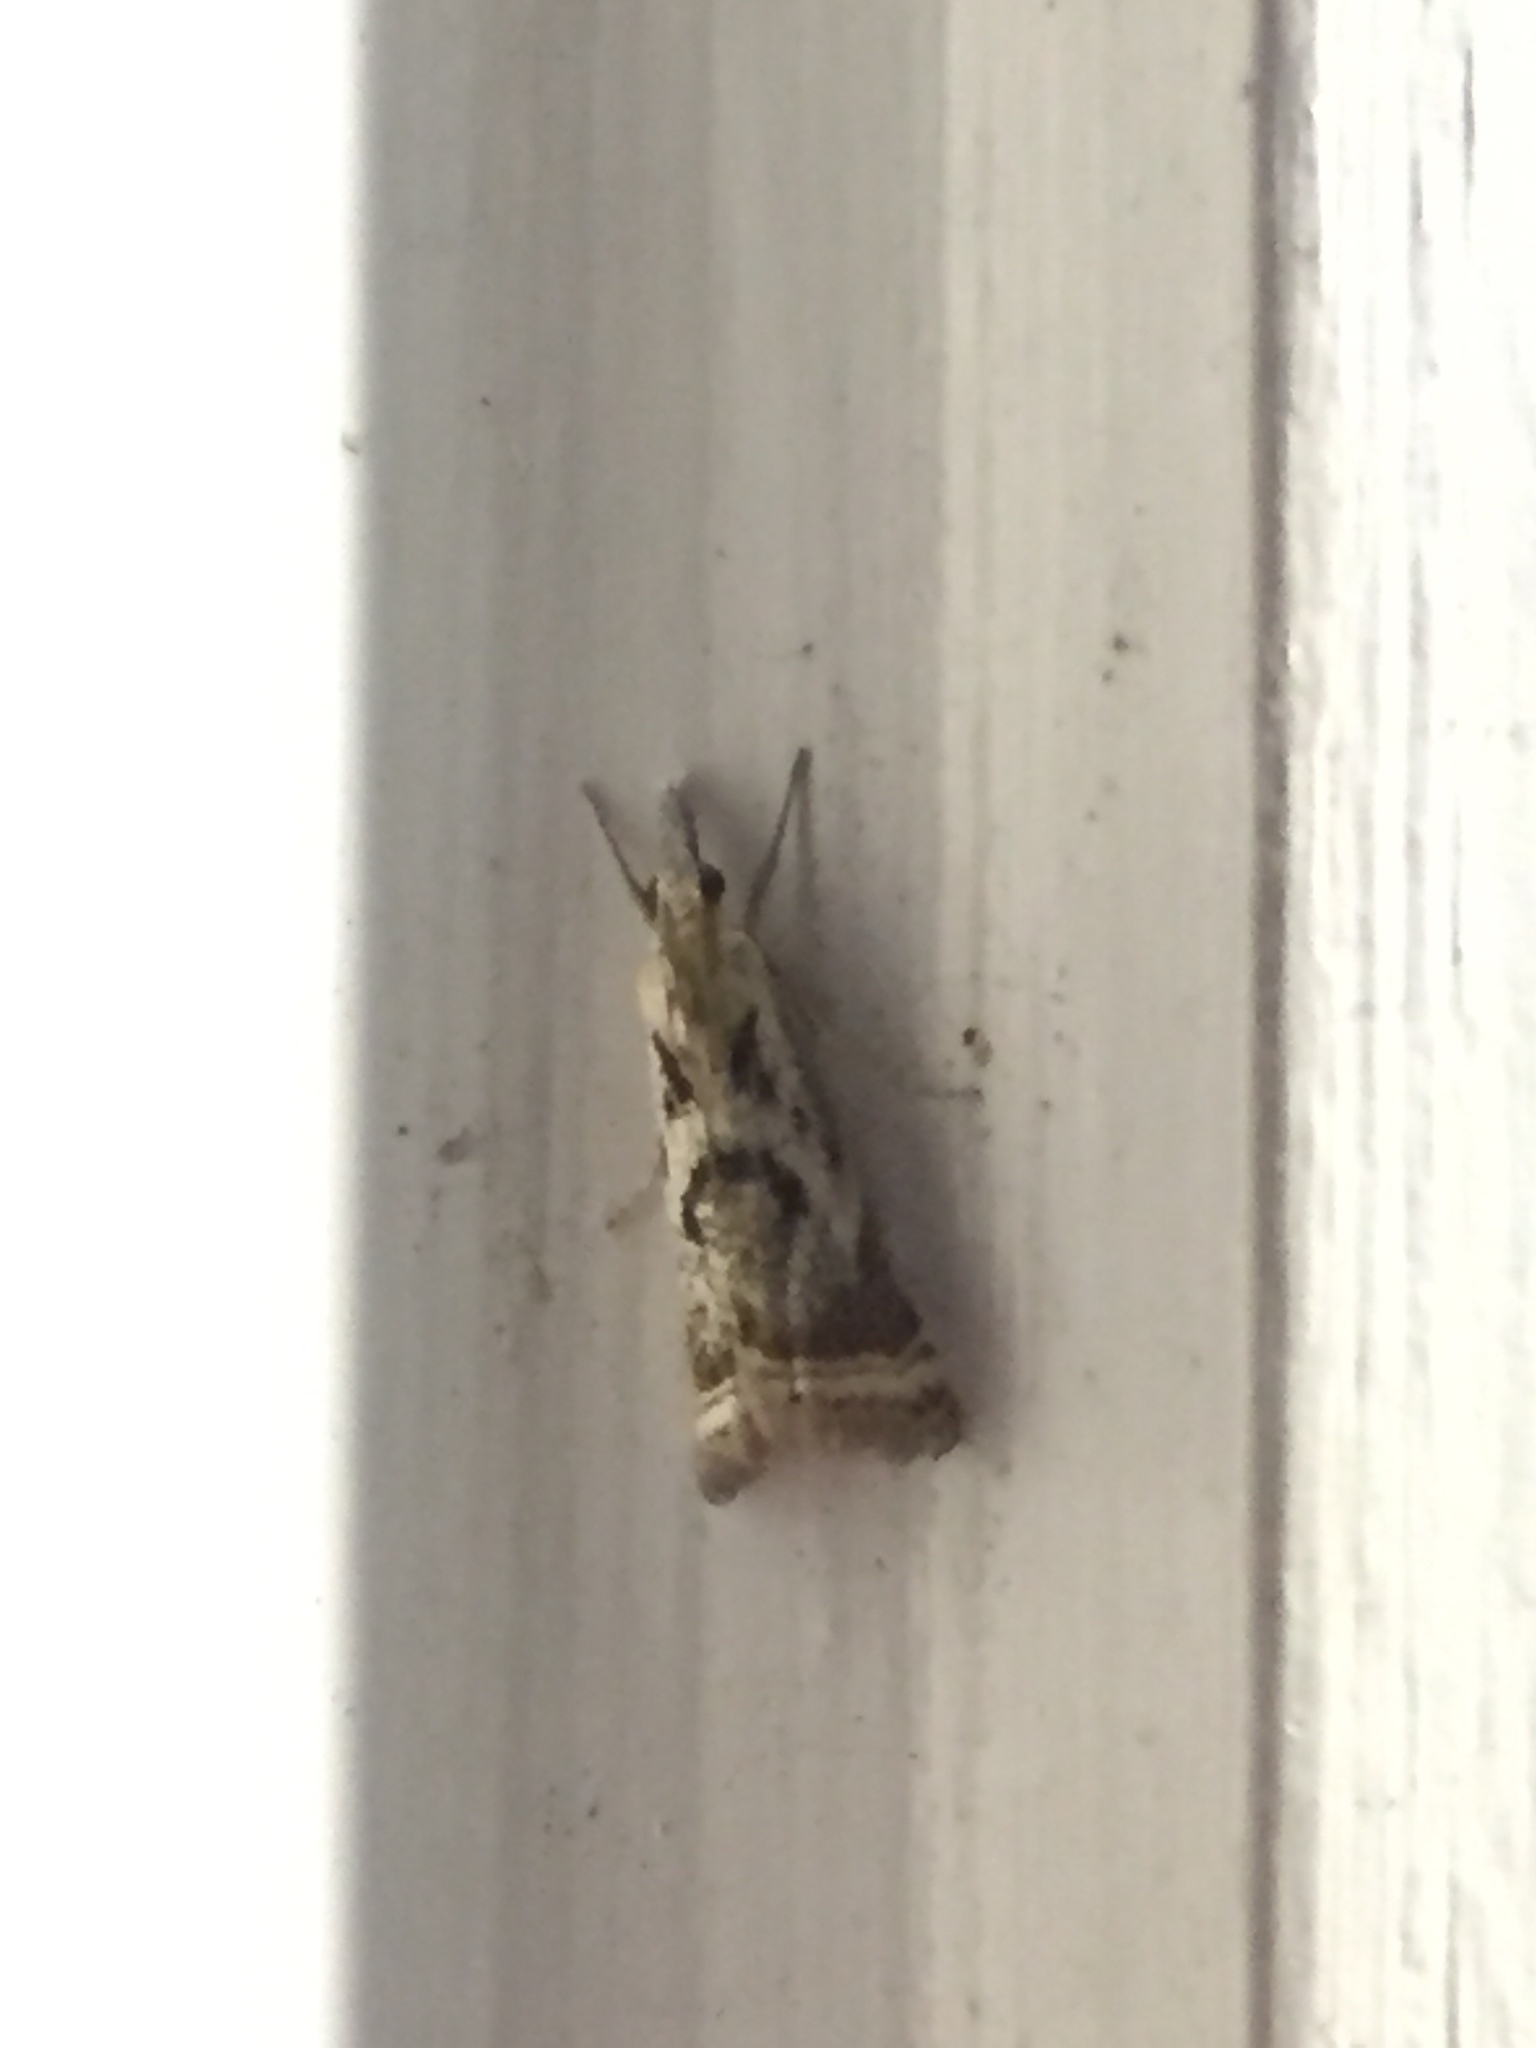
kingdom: Animalia
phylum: Arthropoda
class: Insecta
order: Lepidoptera
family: Crambidae
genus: Microcrambus
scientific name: Microcrambus elegans
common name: Elegant grass-veneer
